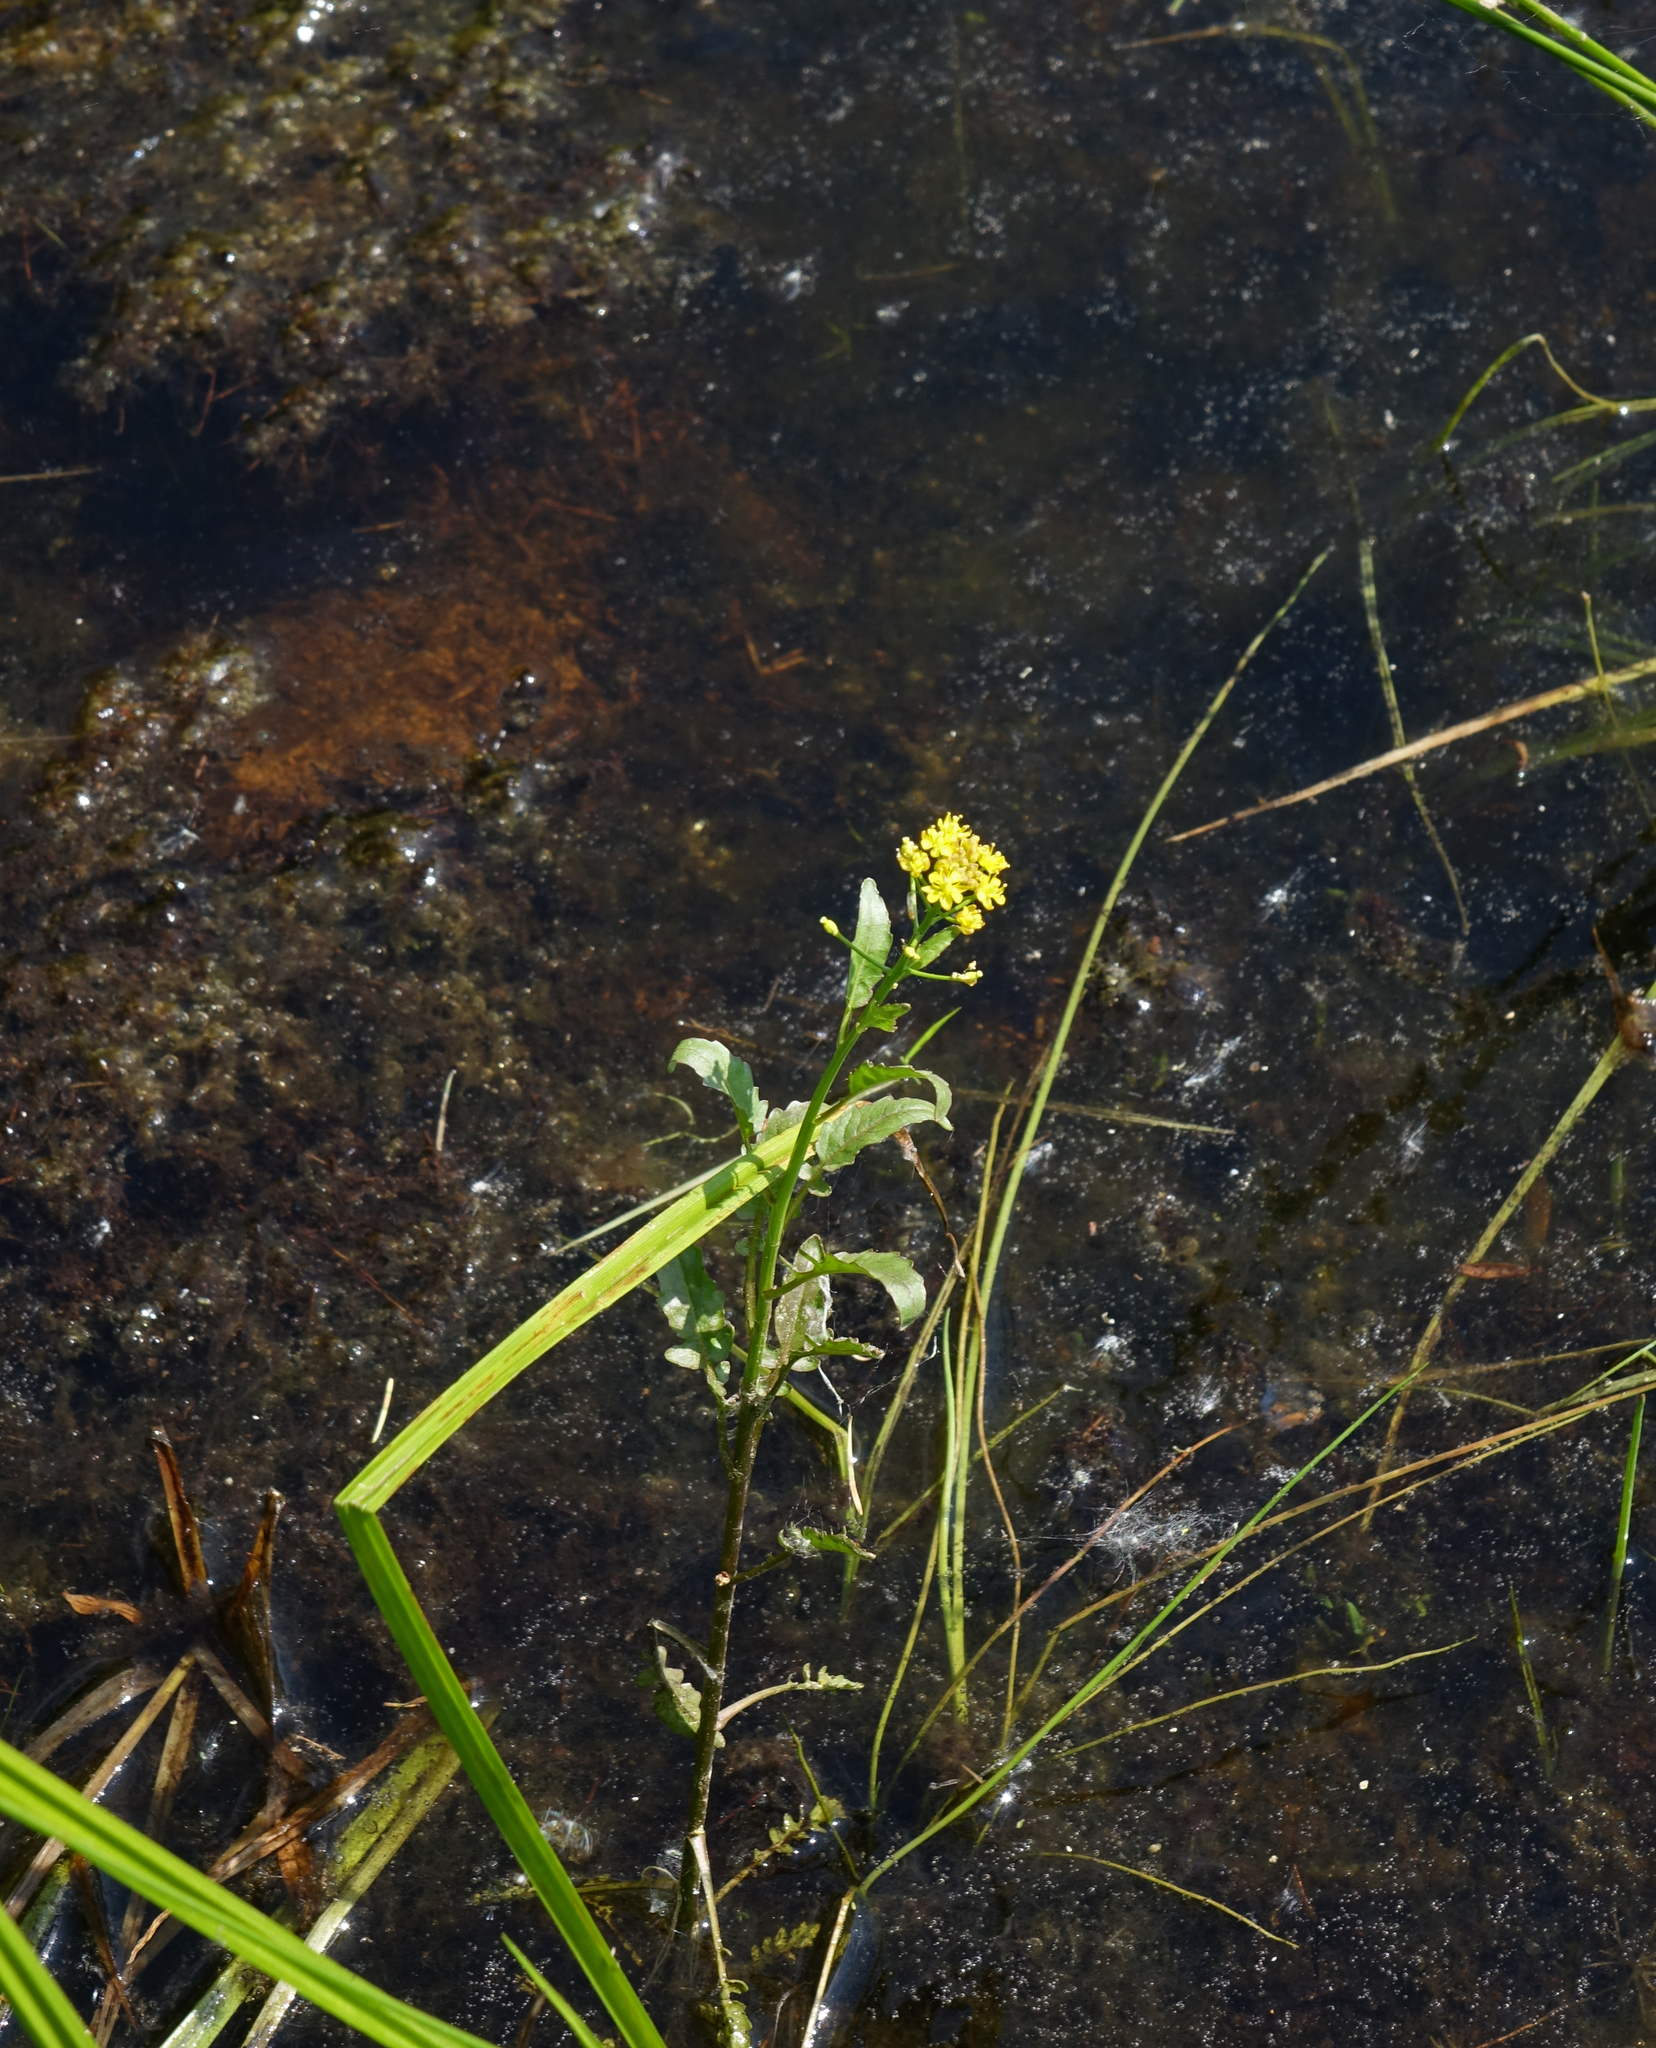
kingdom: Plantae
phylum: Tracheophyta
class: Magnoliopsida
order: Brassicales
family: Brassicaceae
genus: Rorippa
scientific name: Rorippa palustris
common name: Marsh yellow-cress
